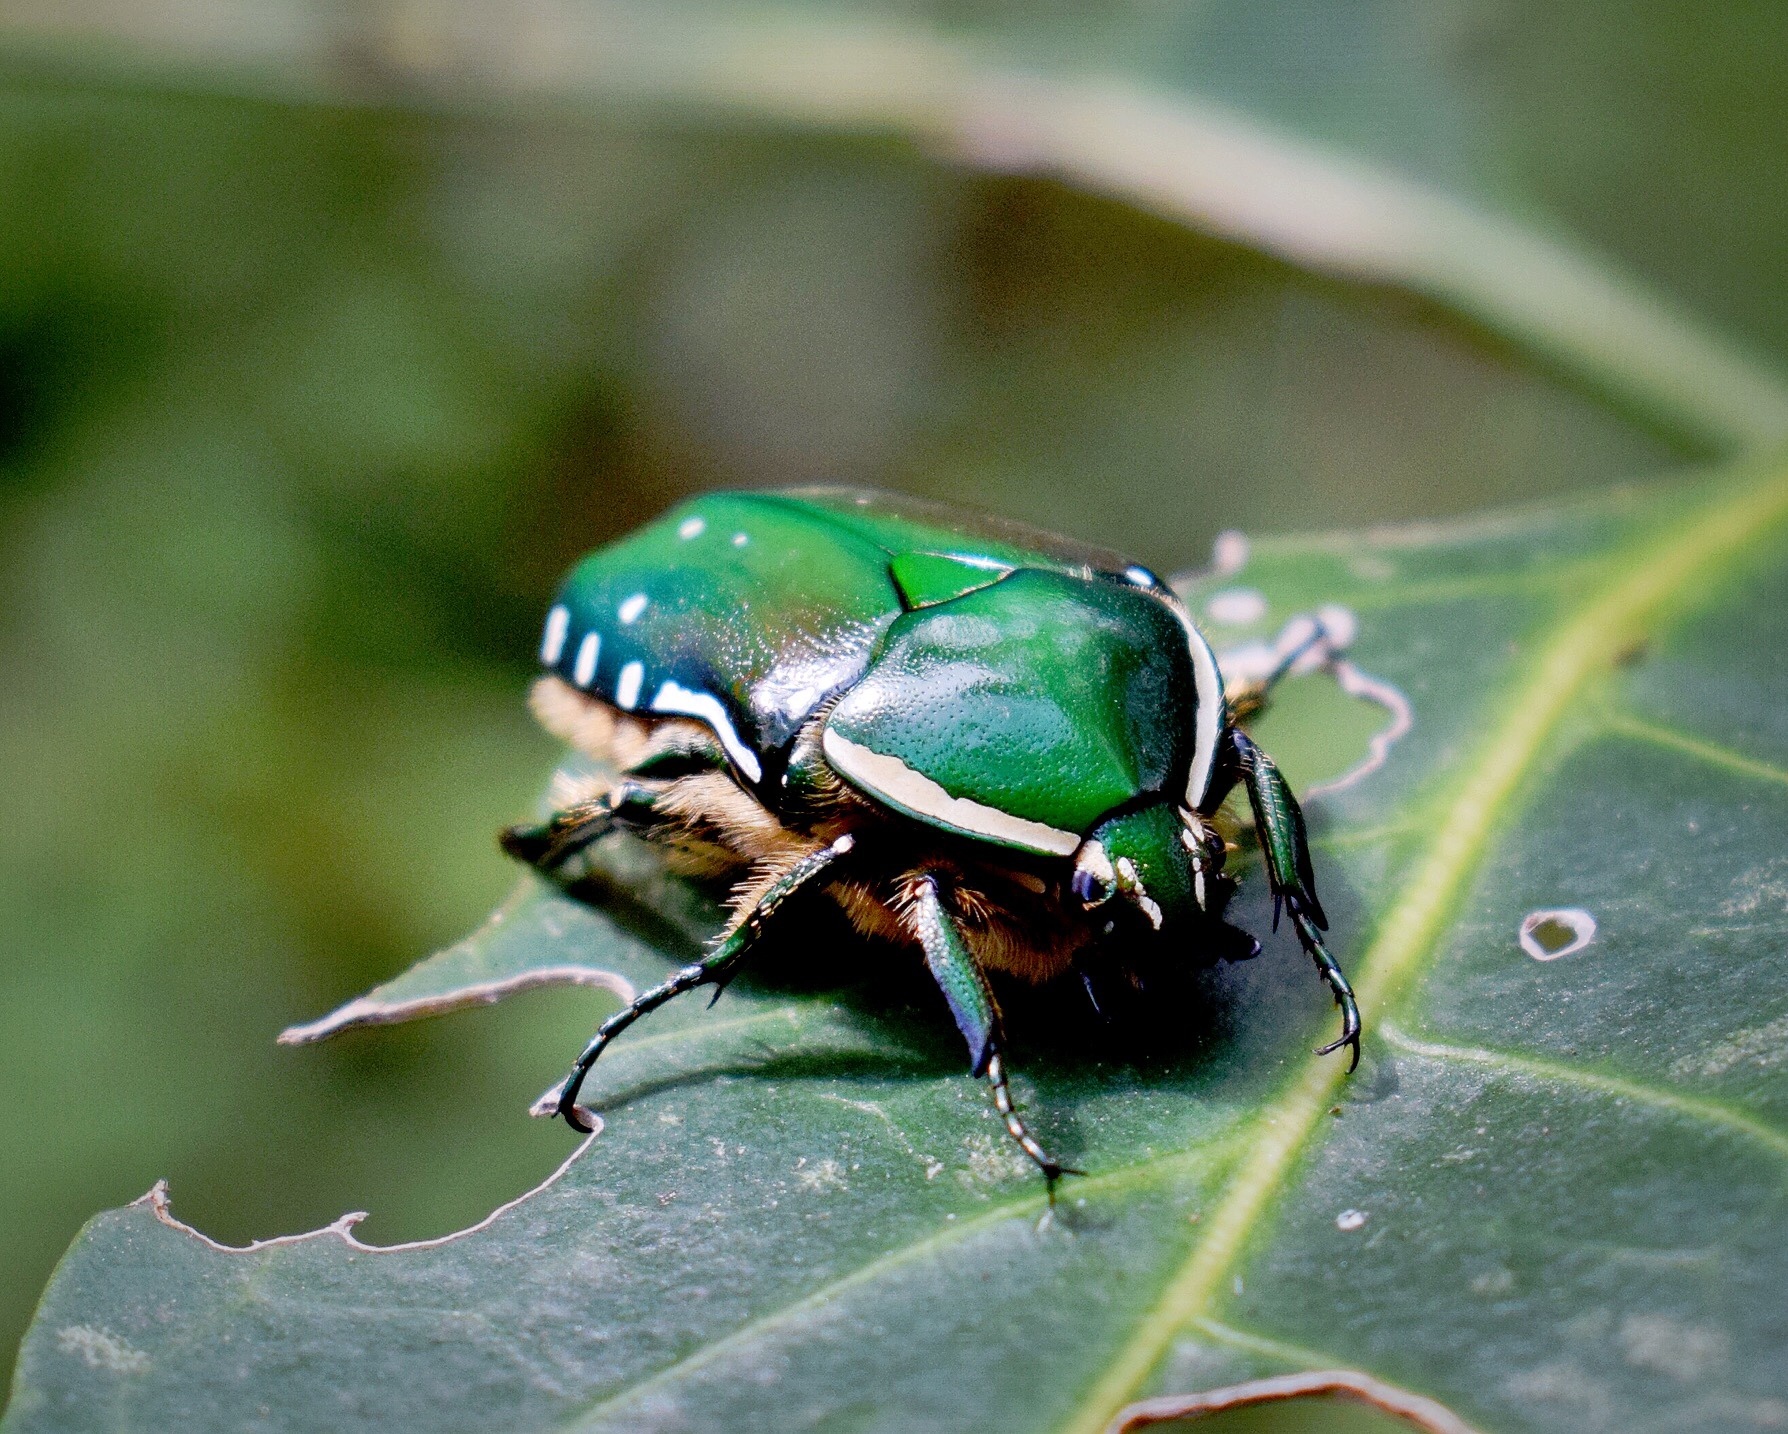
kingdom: Animalia
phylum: Arthropoda
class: Insecta
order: Coleoptera
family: Scarabaeidae
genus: Rhabdotis
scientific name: Rhabdotis aulica
